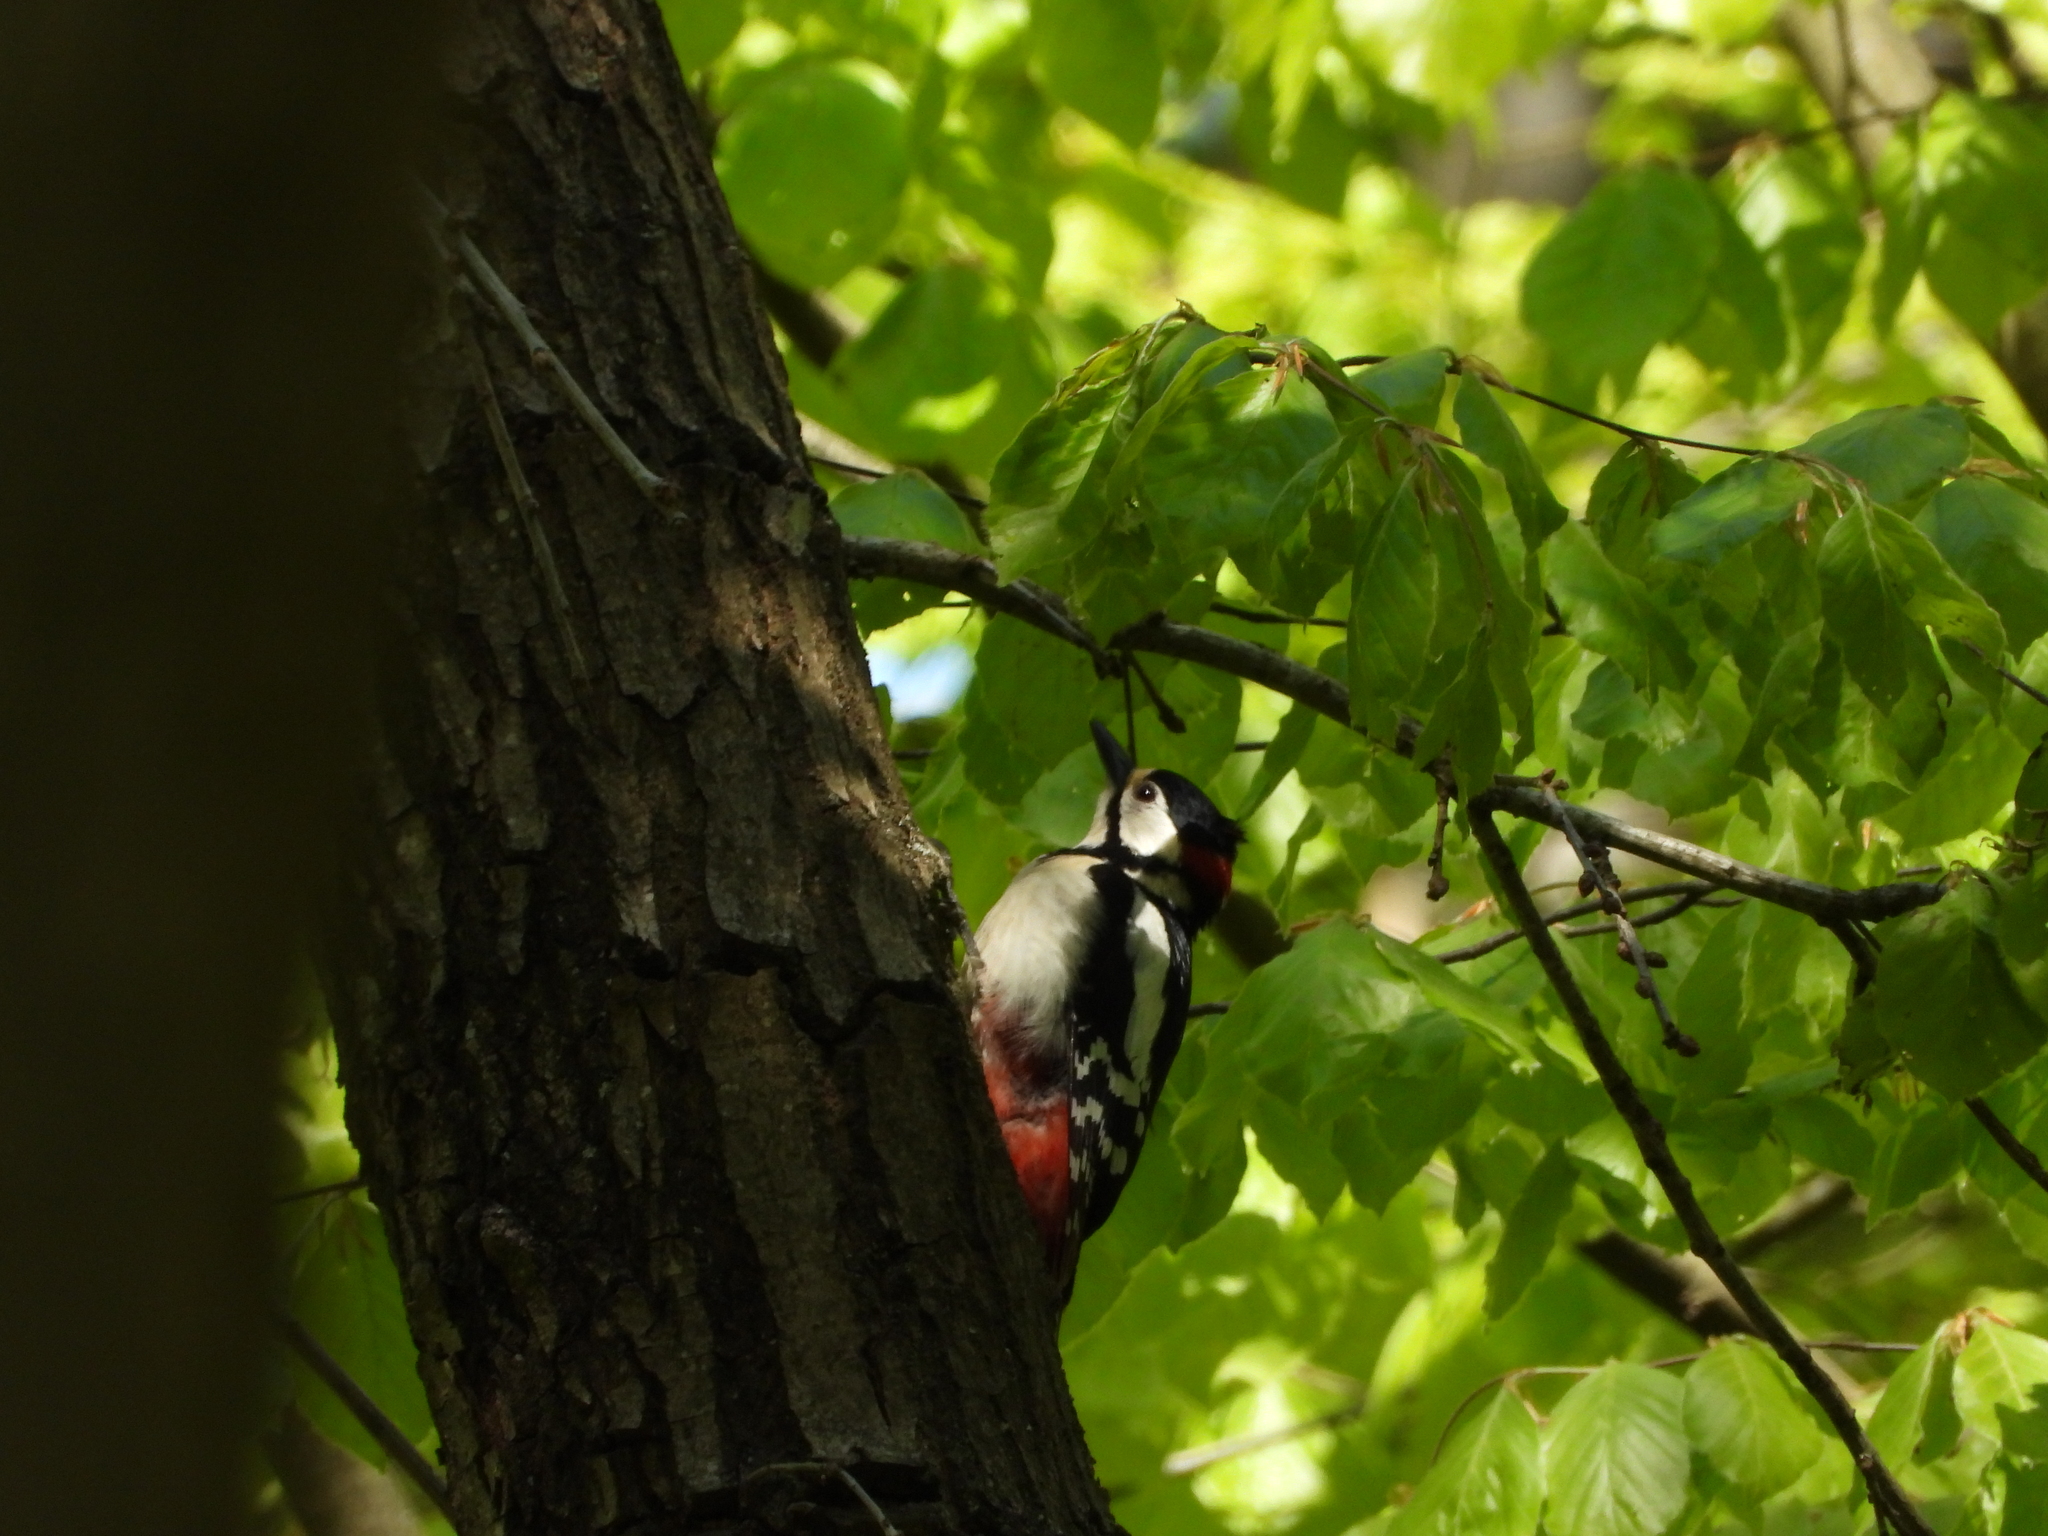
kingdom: Animalia
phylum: Chordata
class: Aves
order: Piciformes
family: Picidae
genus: Dendrocopos
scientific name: Dendrocopos major
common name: Great spotted woodpecker
